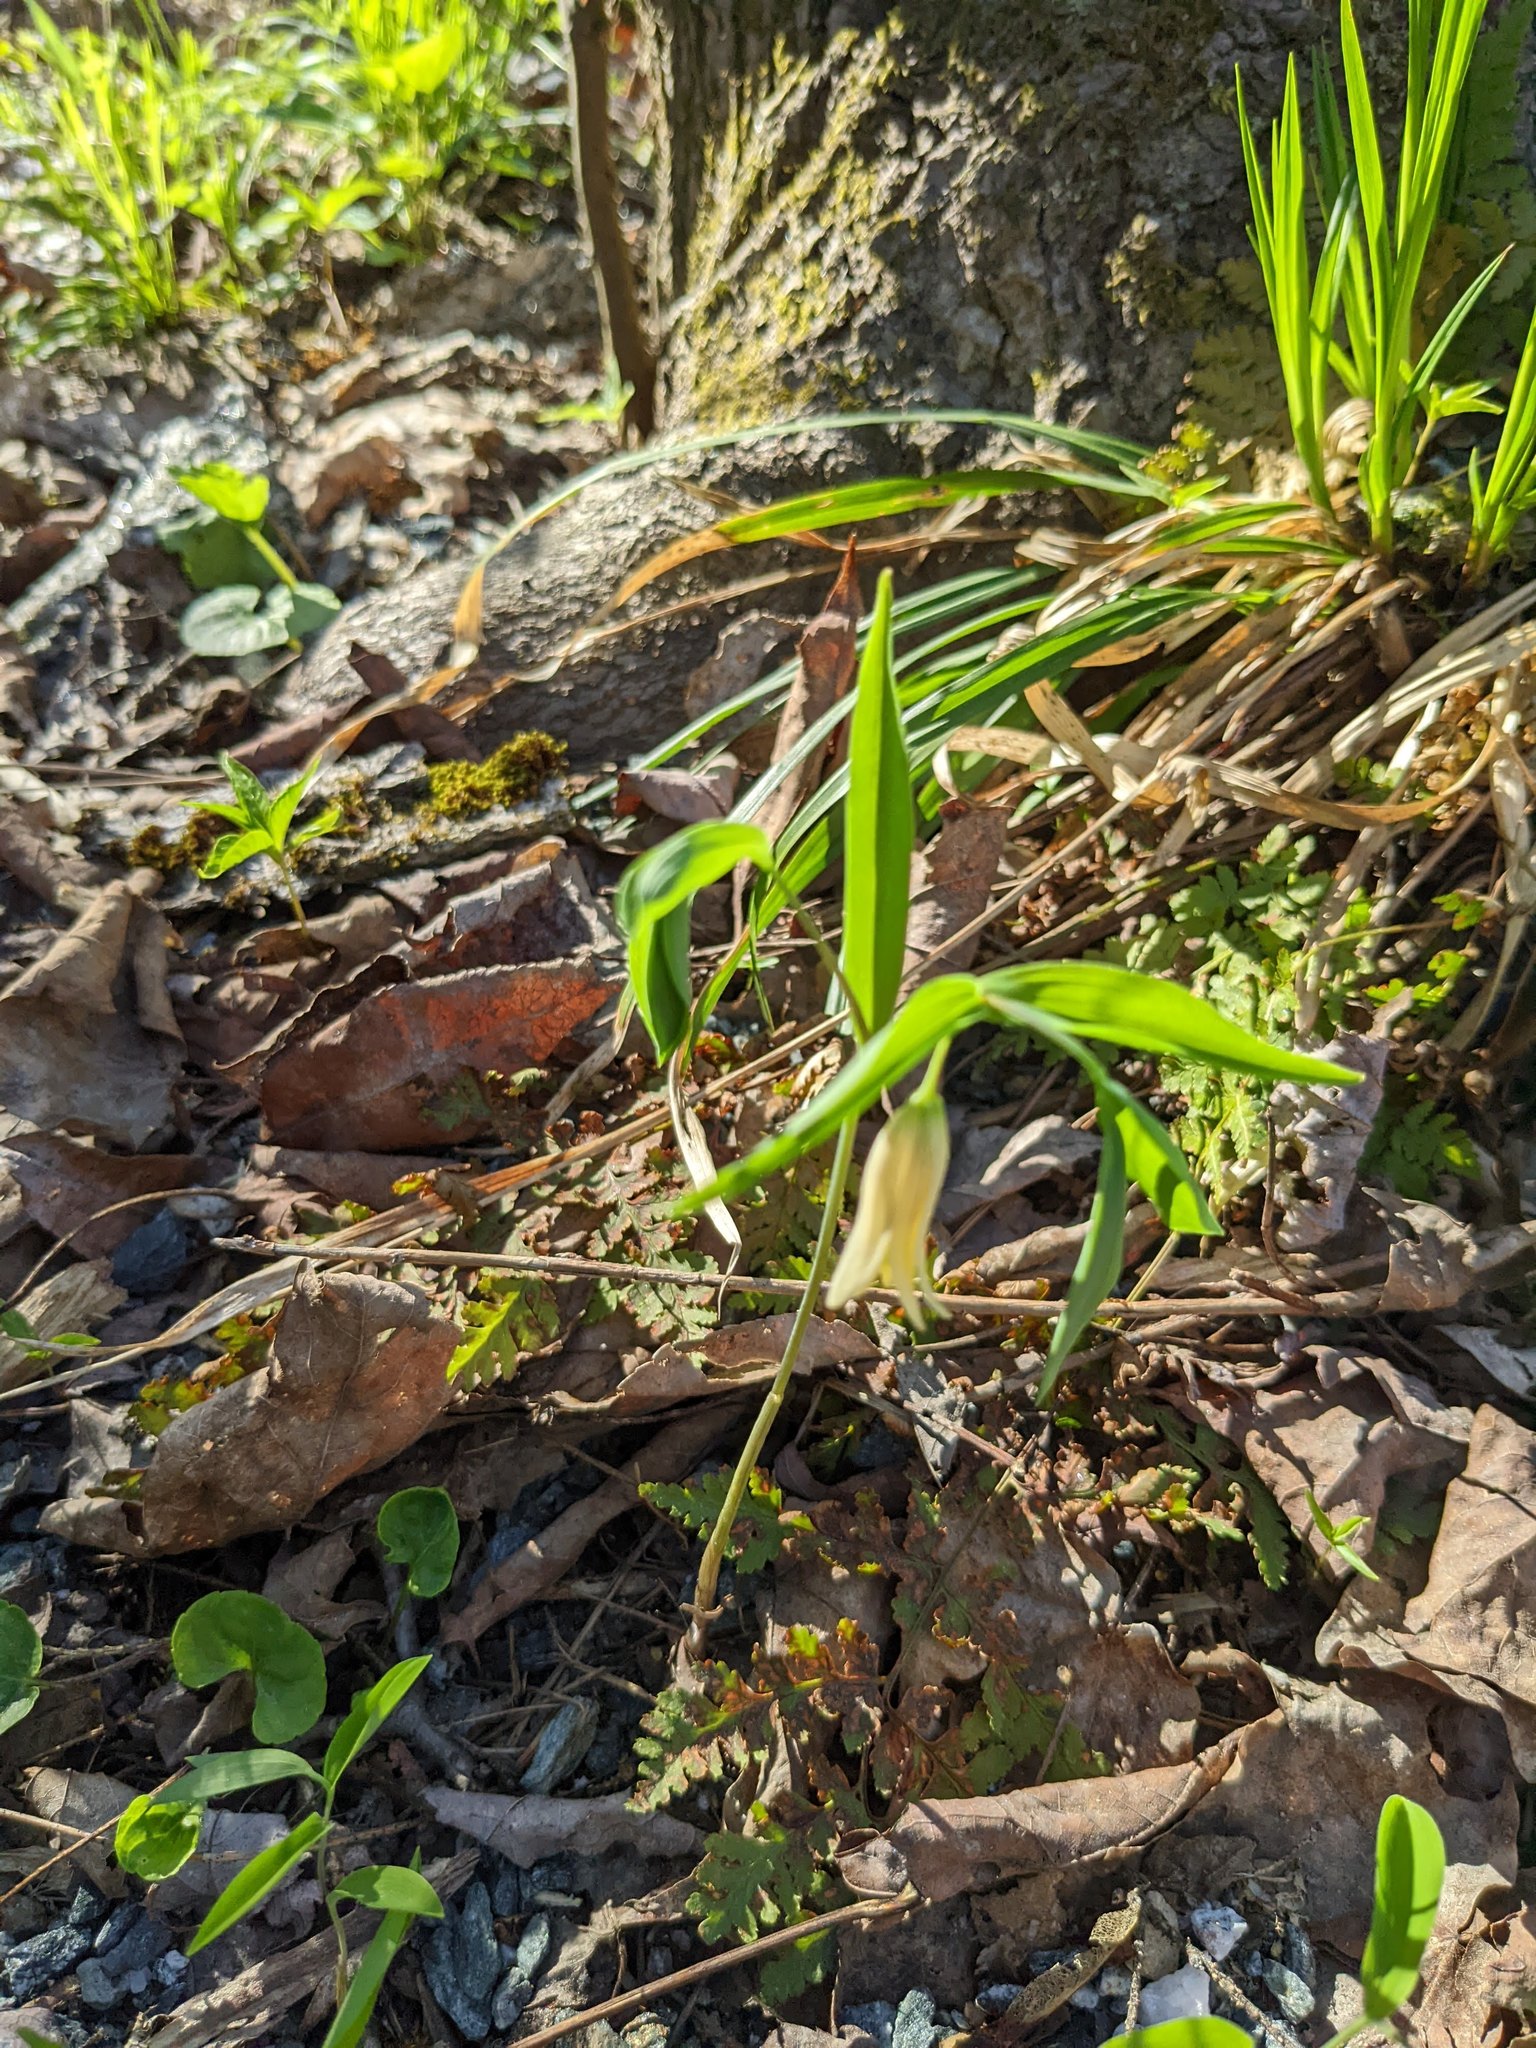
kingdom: Plantae
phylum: Tracheophyta
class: Liliopsida
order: Liliales
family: Colchicaceae
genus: Uvularia
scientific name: Uvularia sessilifolia
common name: Straw-lily
